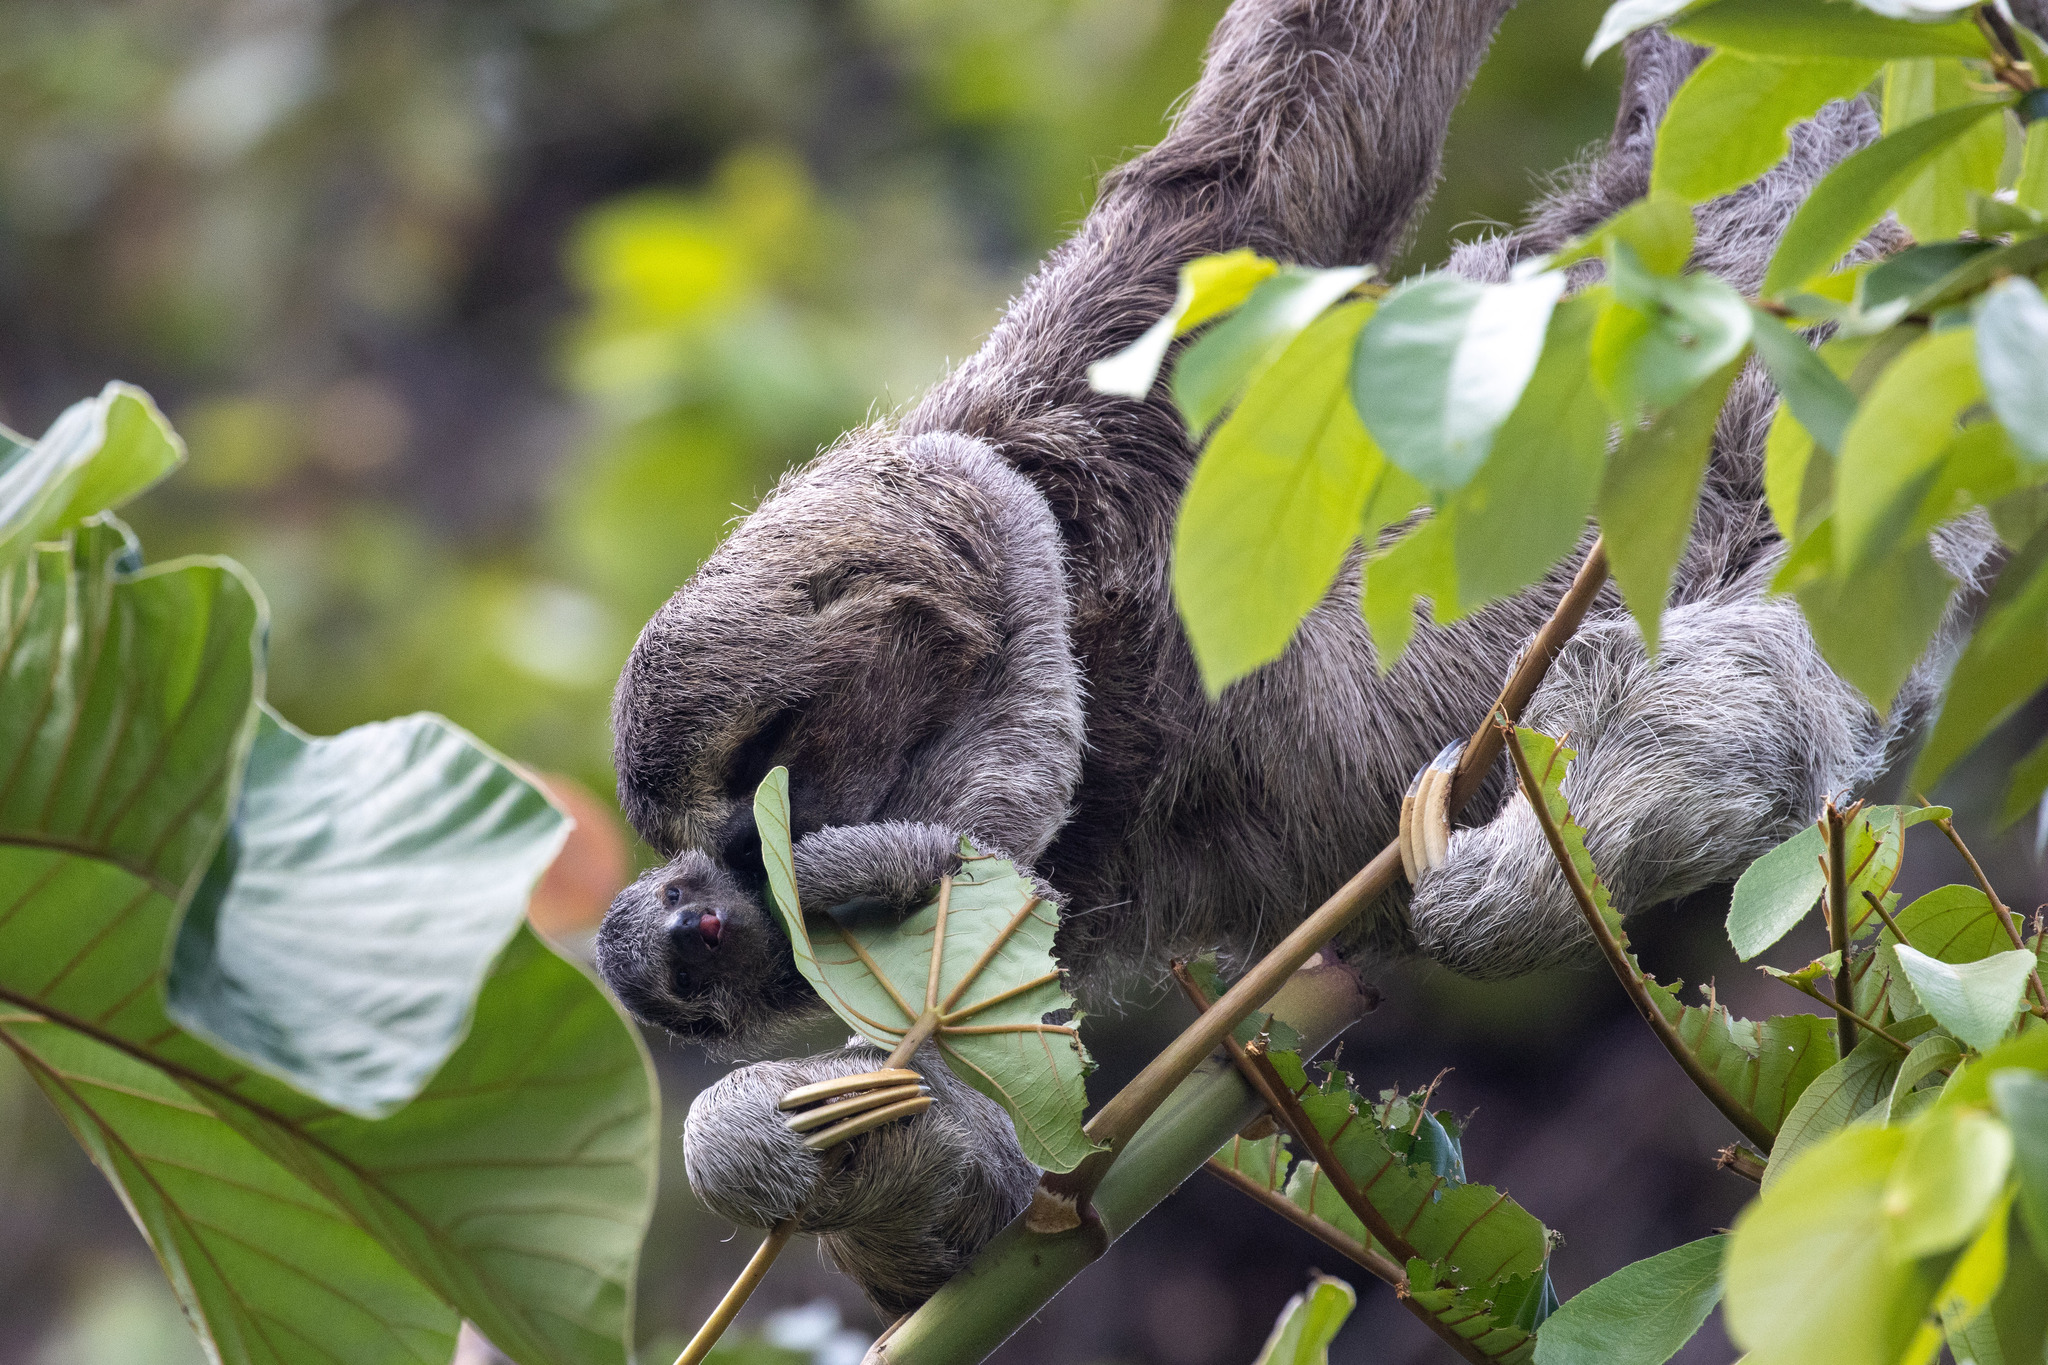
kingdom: Animalia
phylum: Chordata
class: Mammalia
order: Pilosa
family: Bradypodidae
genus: Bradypus
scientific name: Bradypus variegatus
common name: Brown-throated three-toed sloth
